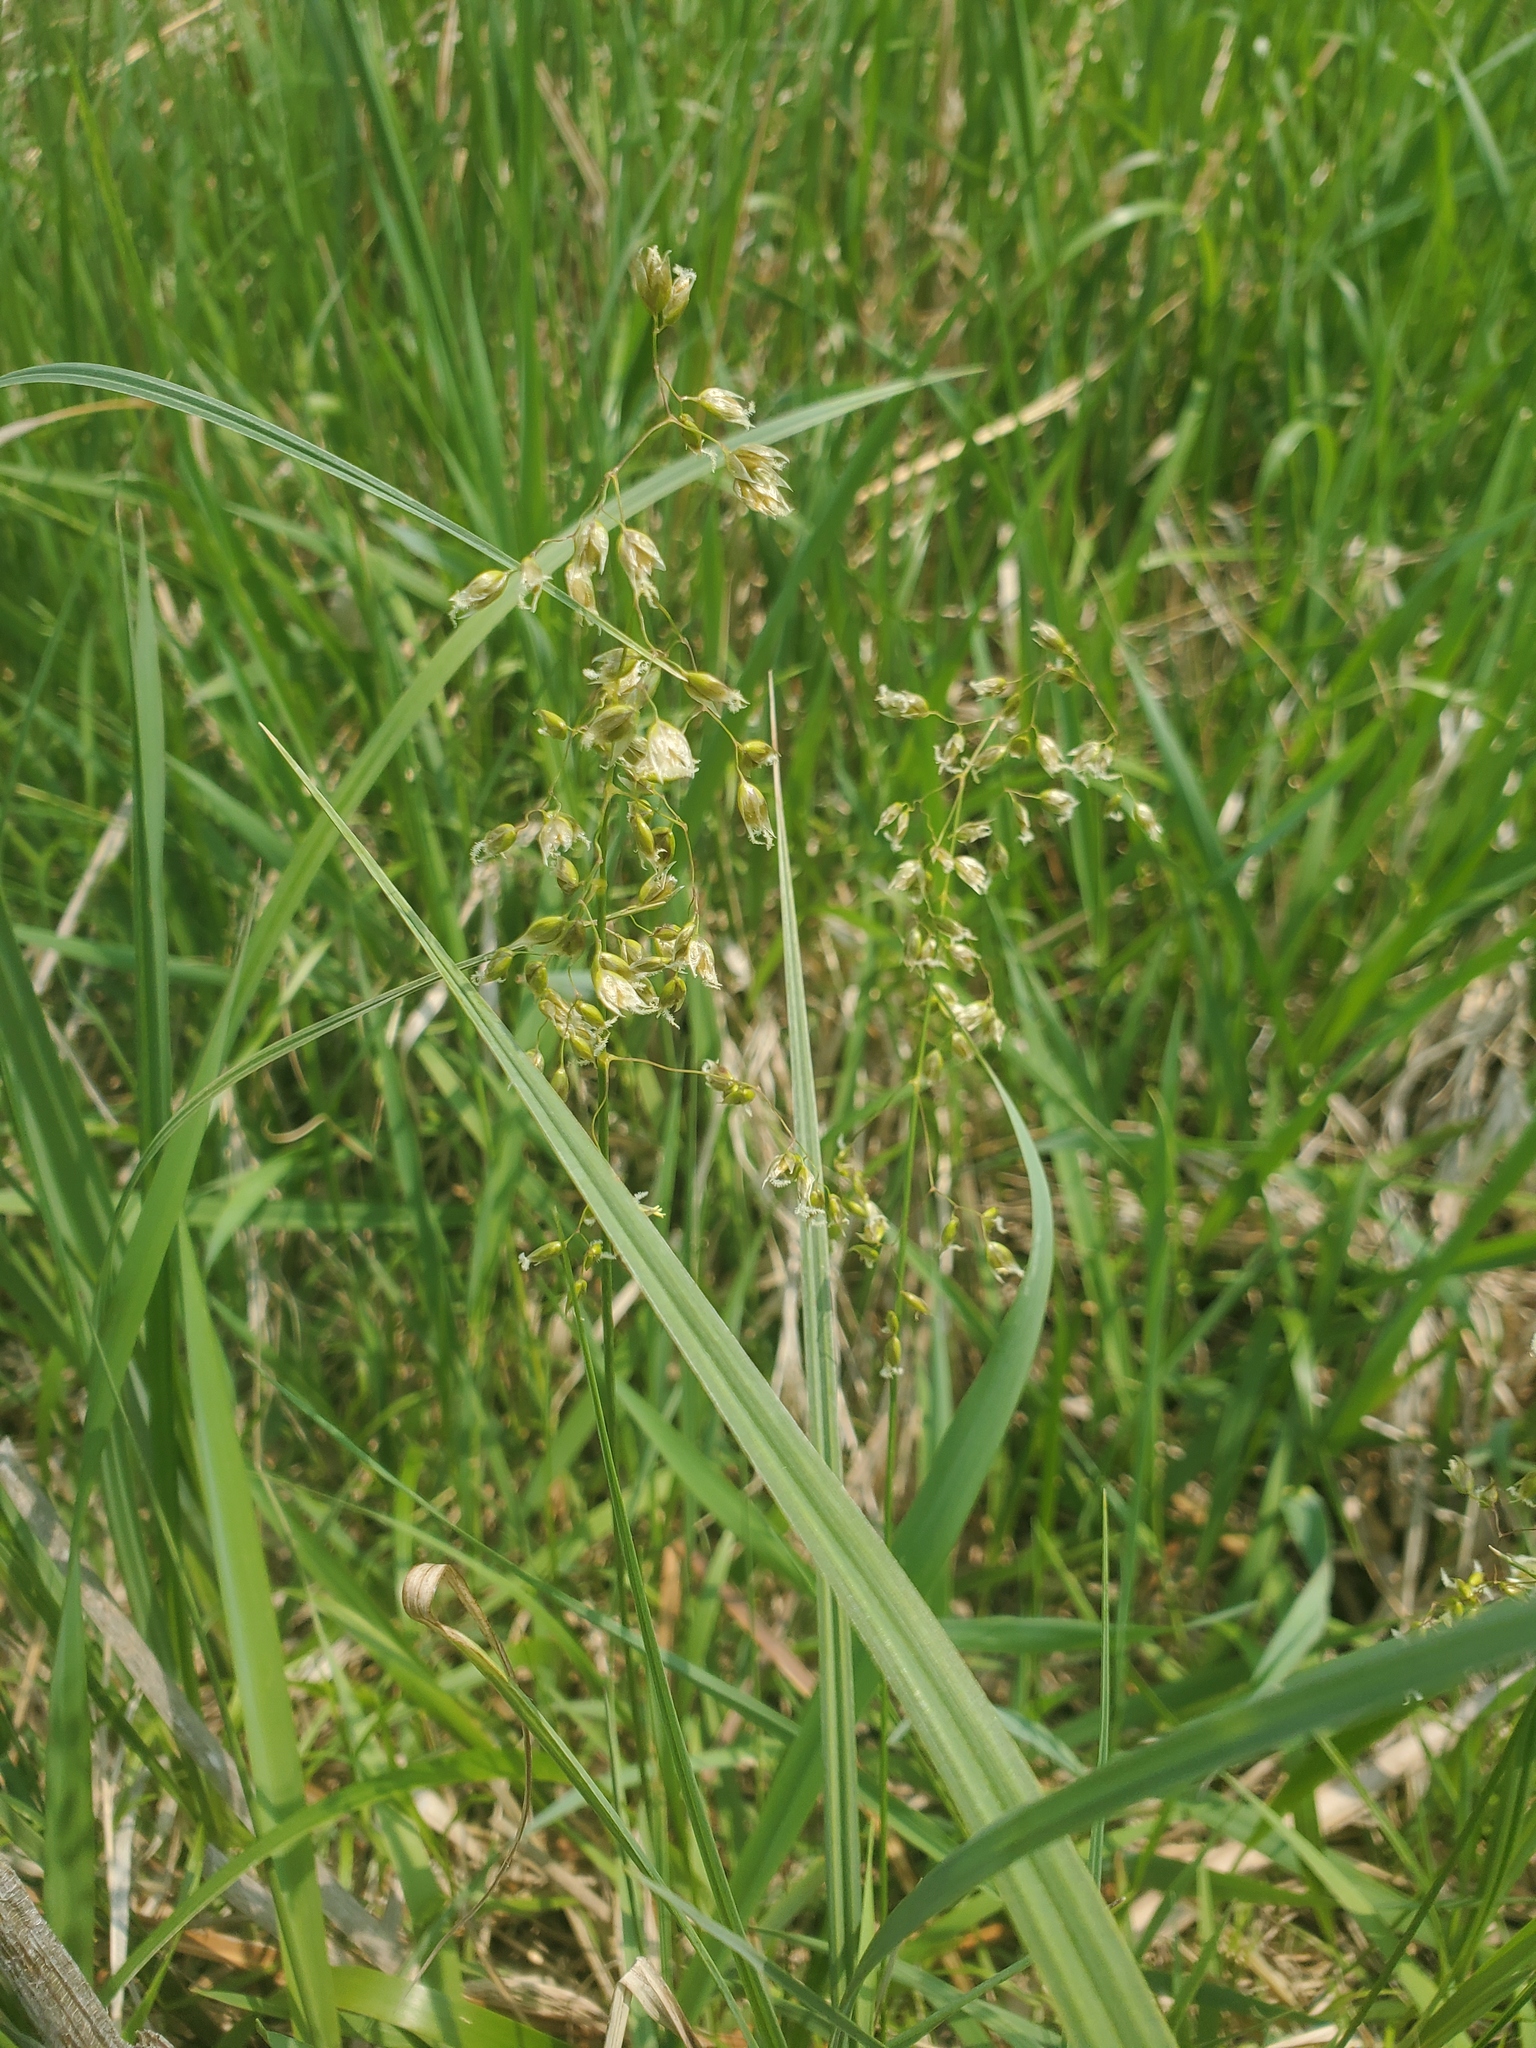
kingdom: Plantae
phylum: Tracheophyta
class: Liliopsida
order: Poales
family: Poaceae
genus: Anthoxanthum
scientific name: Anthoxanthum nitens
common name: Holy grass
